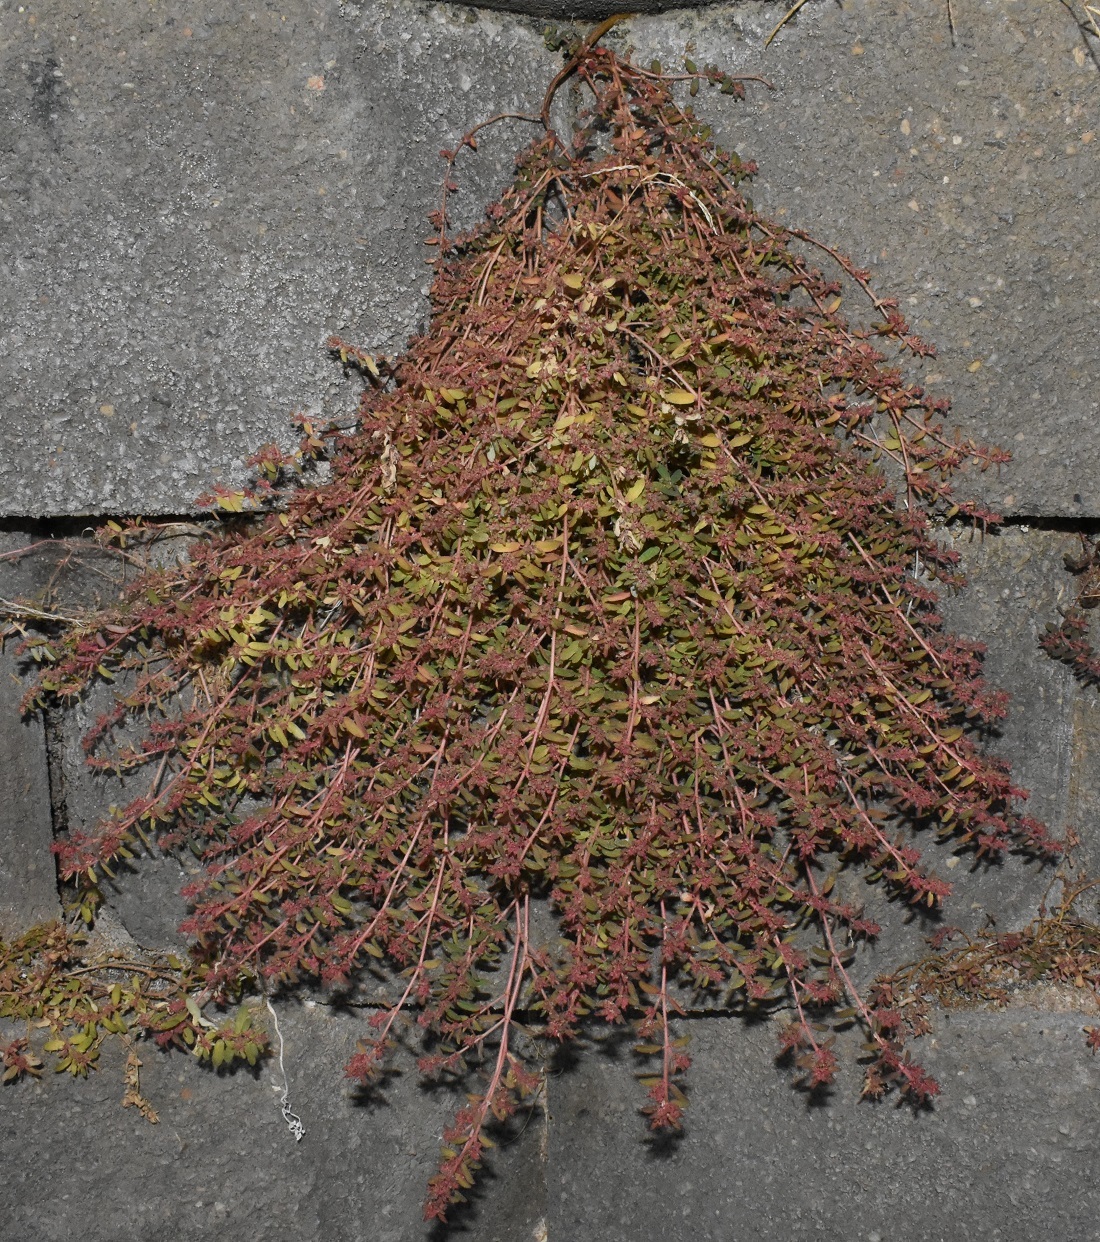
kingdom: Plantae
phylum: Tracheophyta
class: Magnoliopsida
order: Malpighiales
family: Euphorbiaceae
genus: Euphorbia
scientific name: Euphorbia maculata
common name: Spotted spurge
